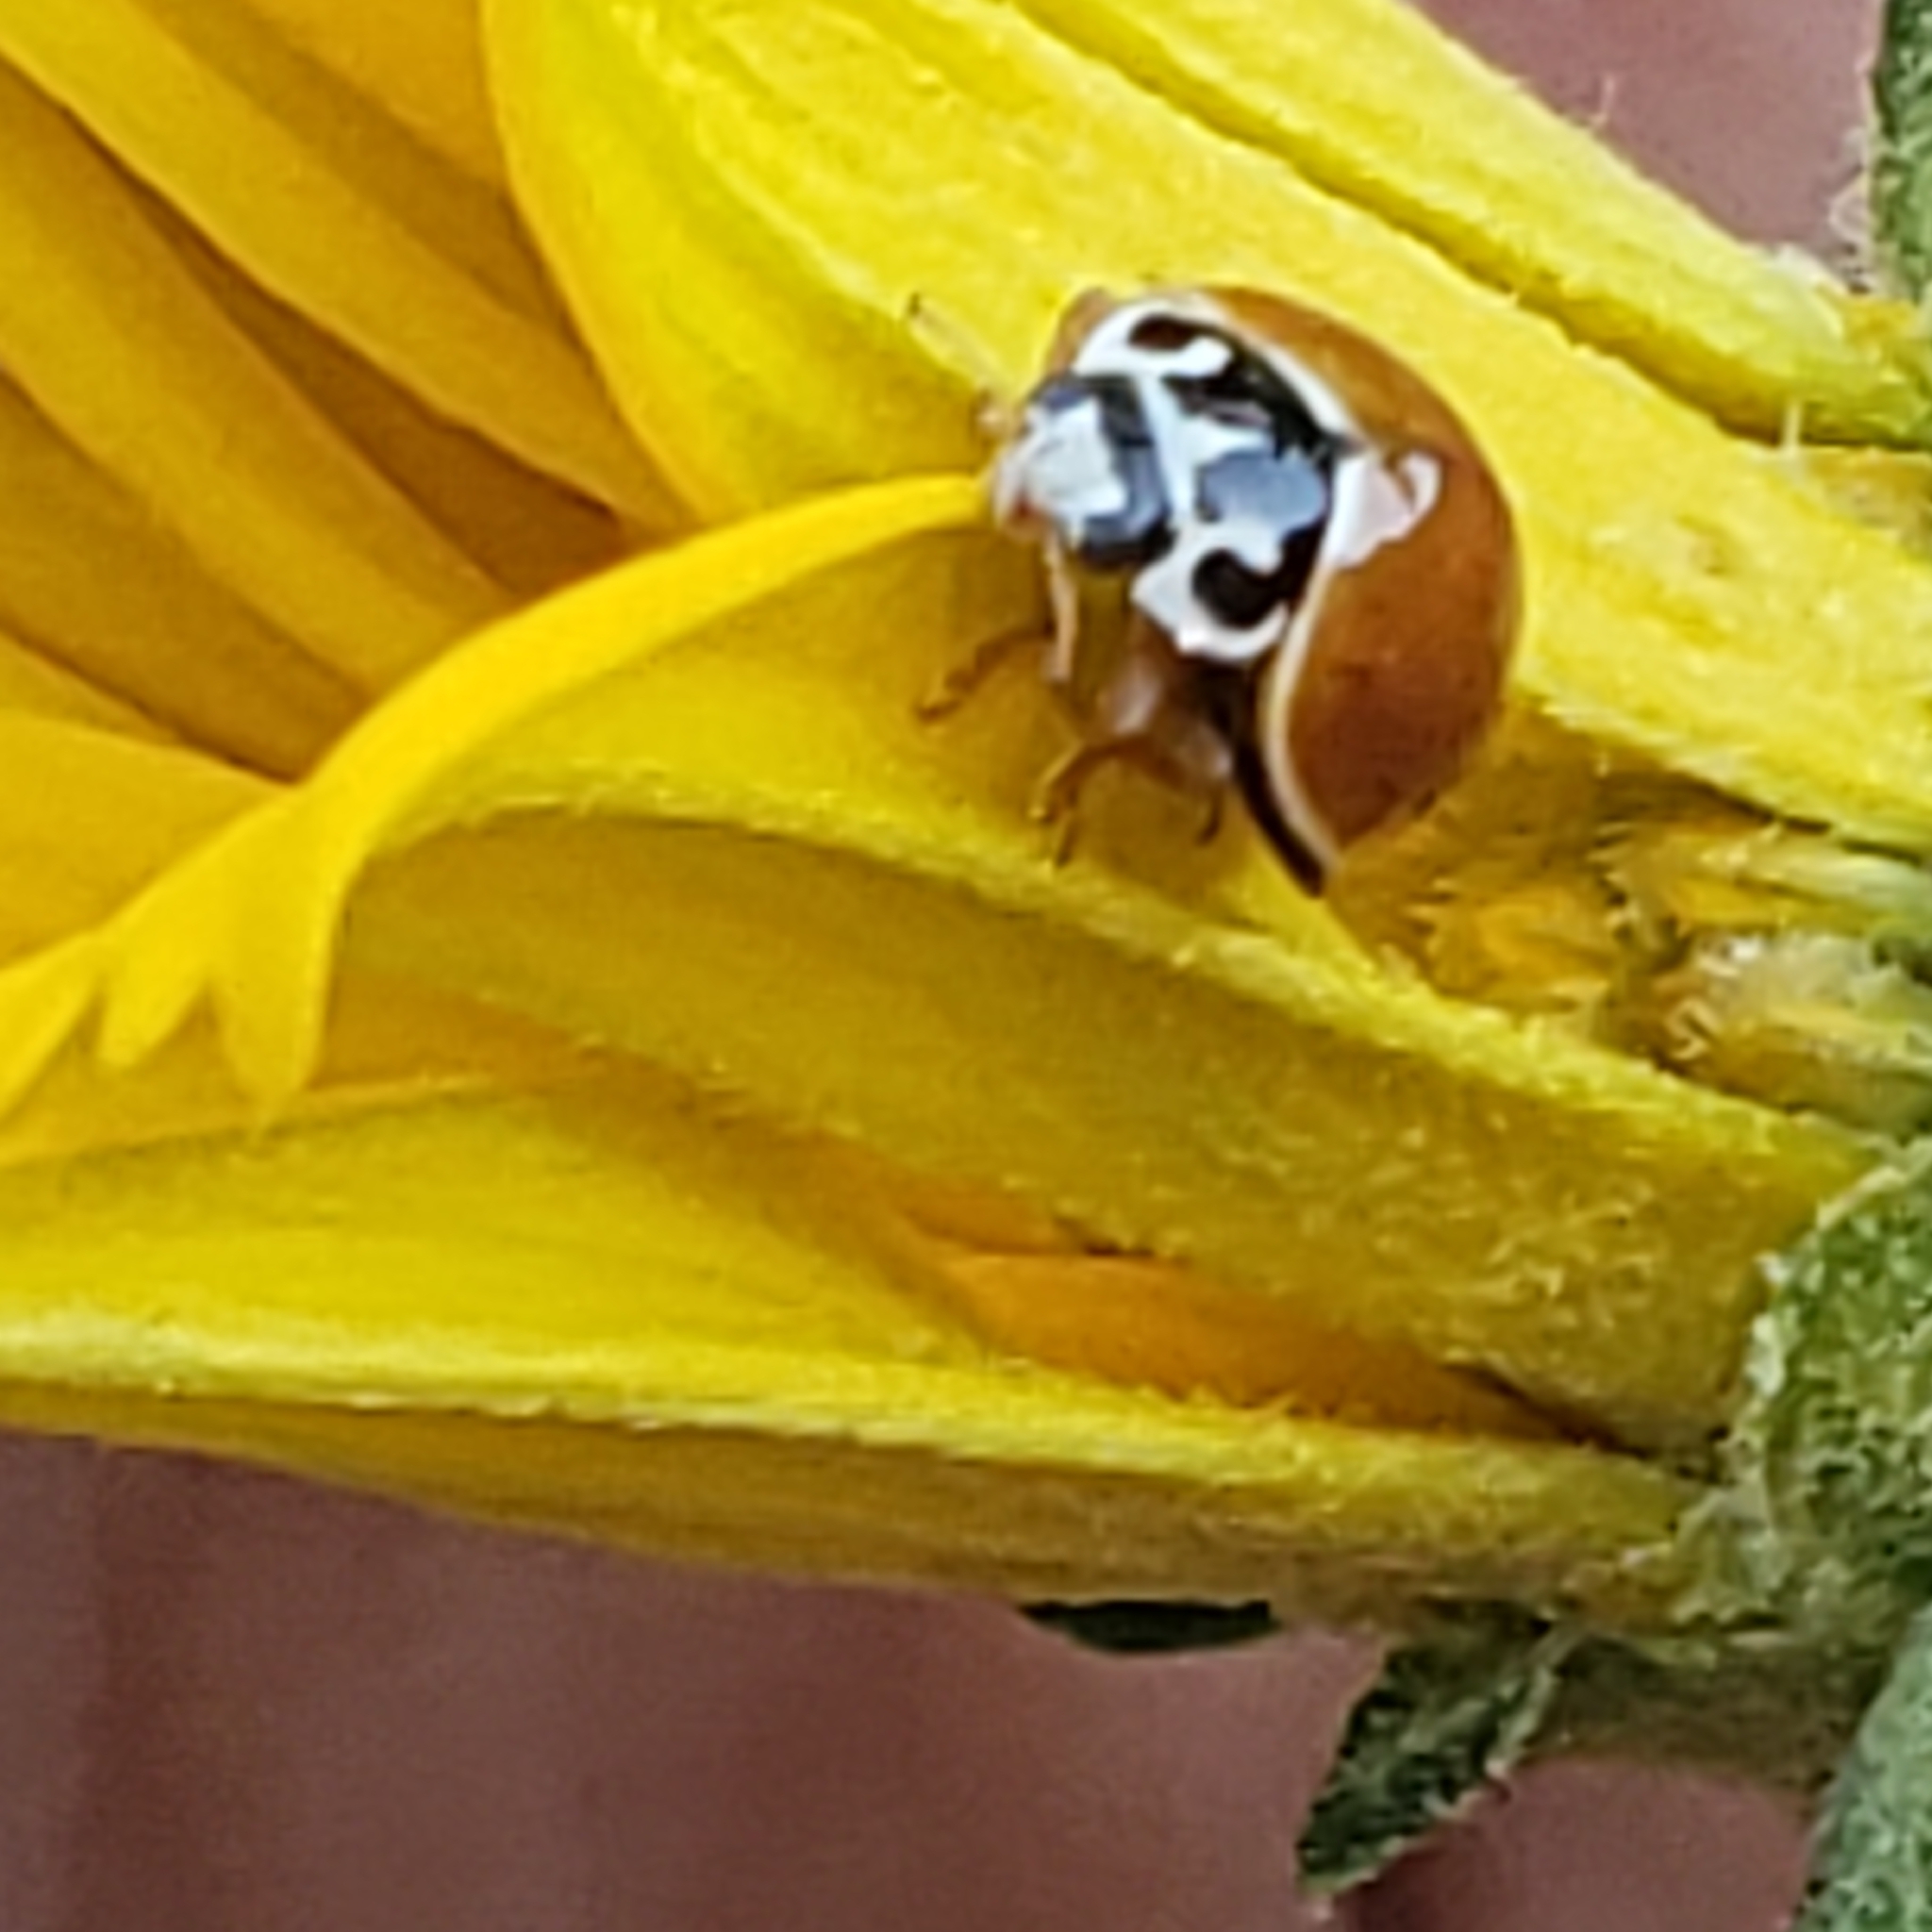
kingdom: Animalia
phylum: Arthropoda
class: Insecta
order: Coleoptera
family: Coccinellidae
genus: Cycloneda
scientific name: Cycloneda munda
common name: Polished lady beetle
